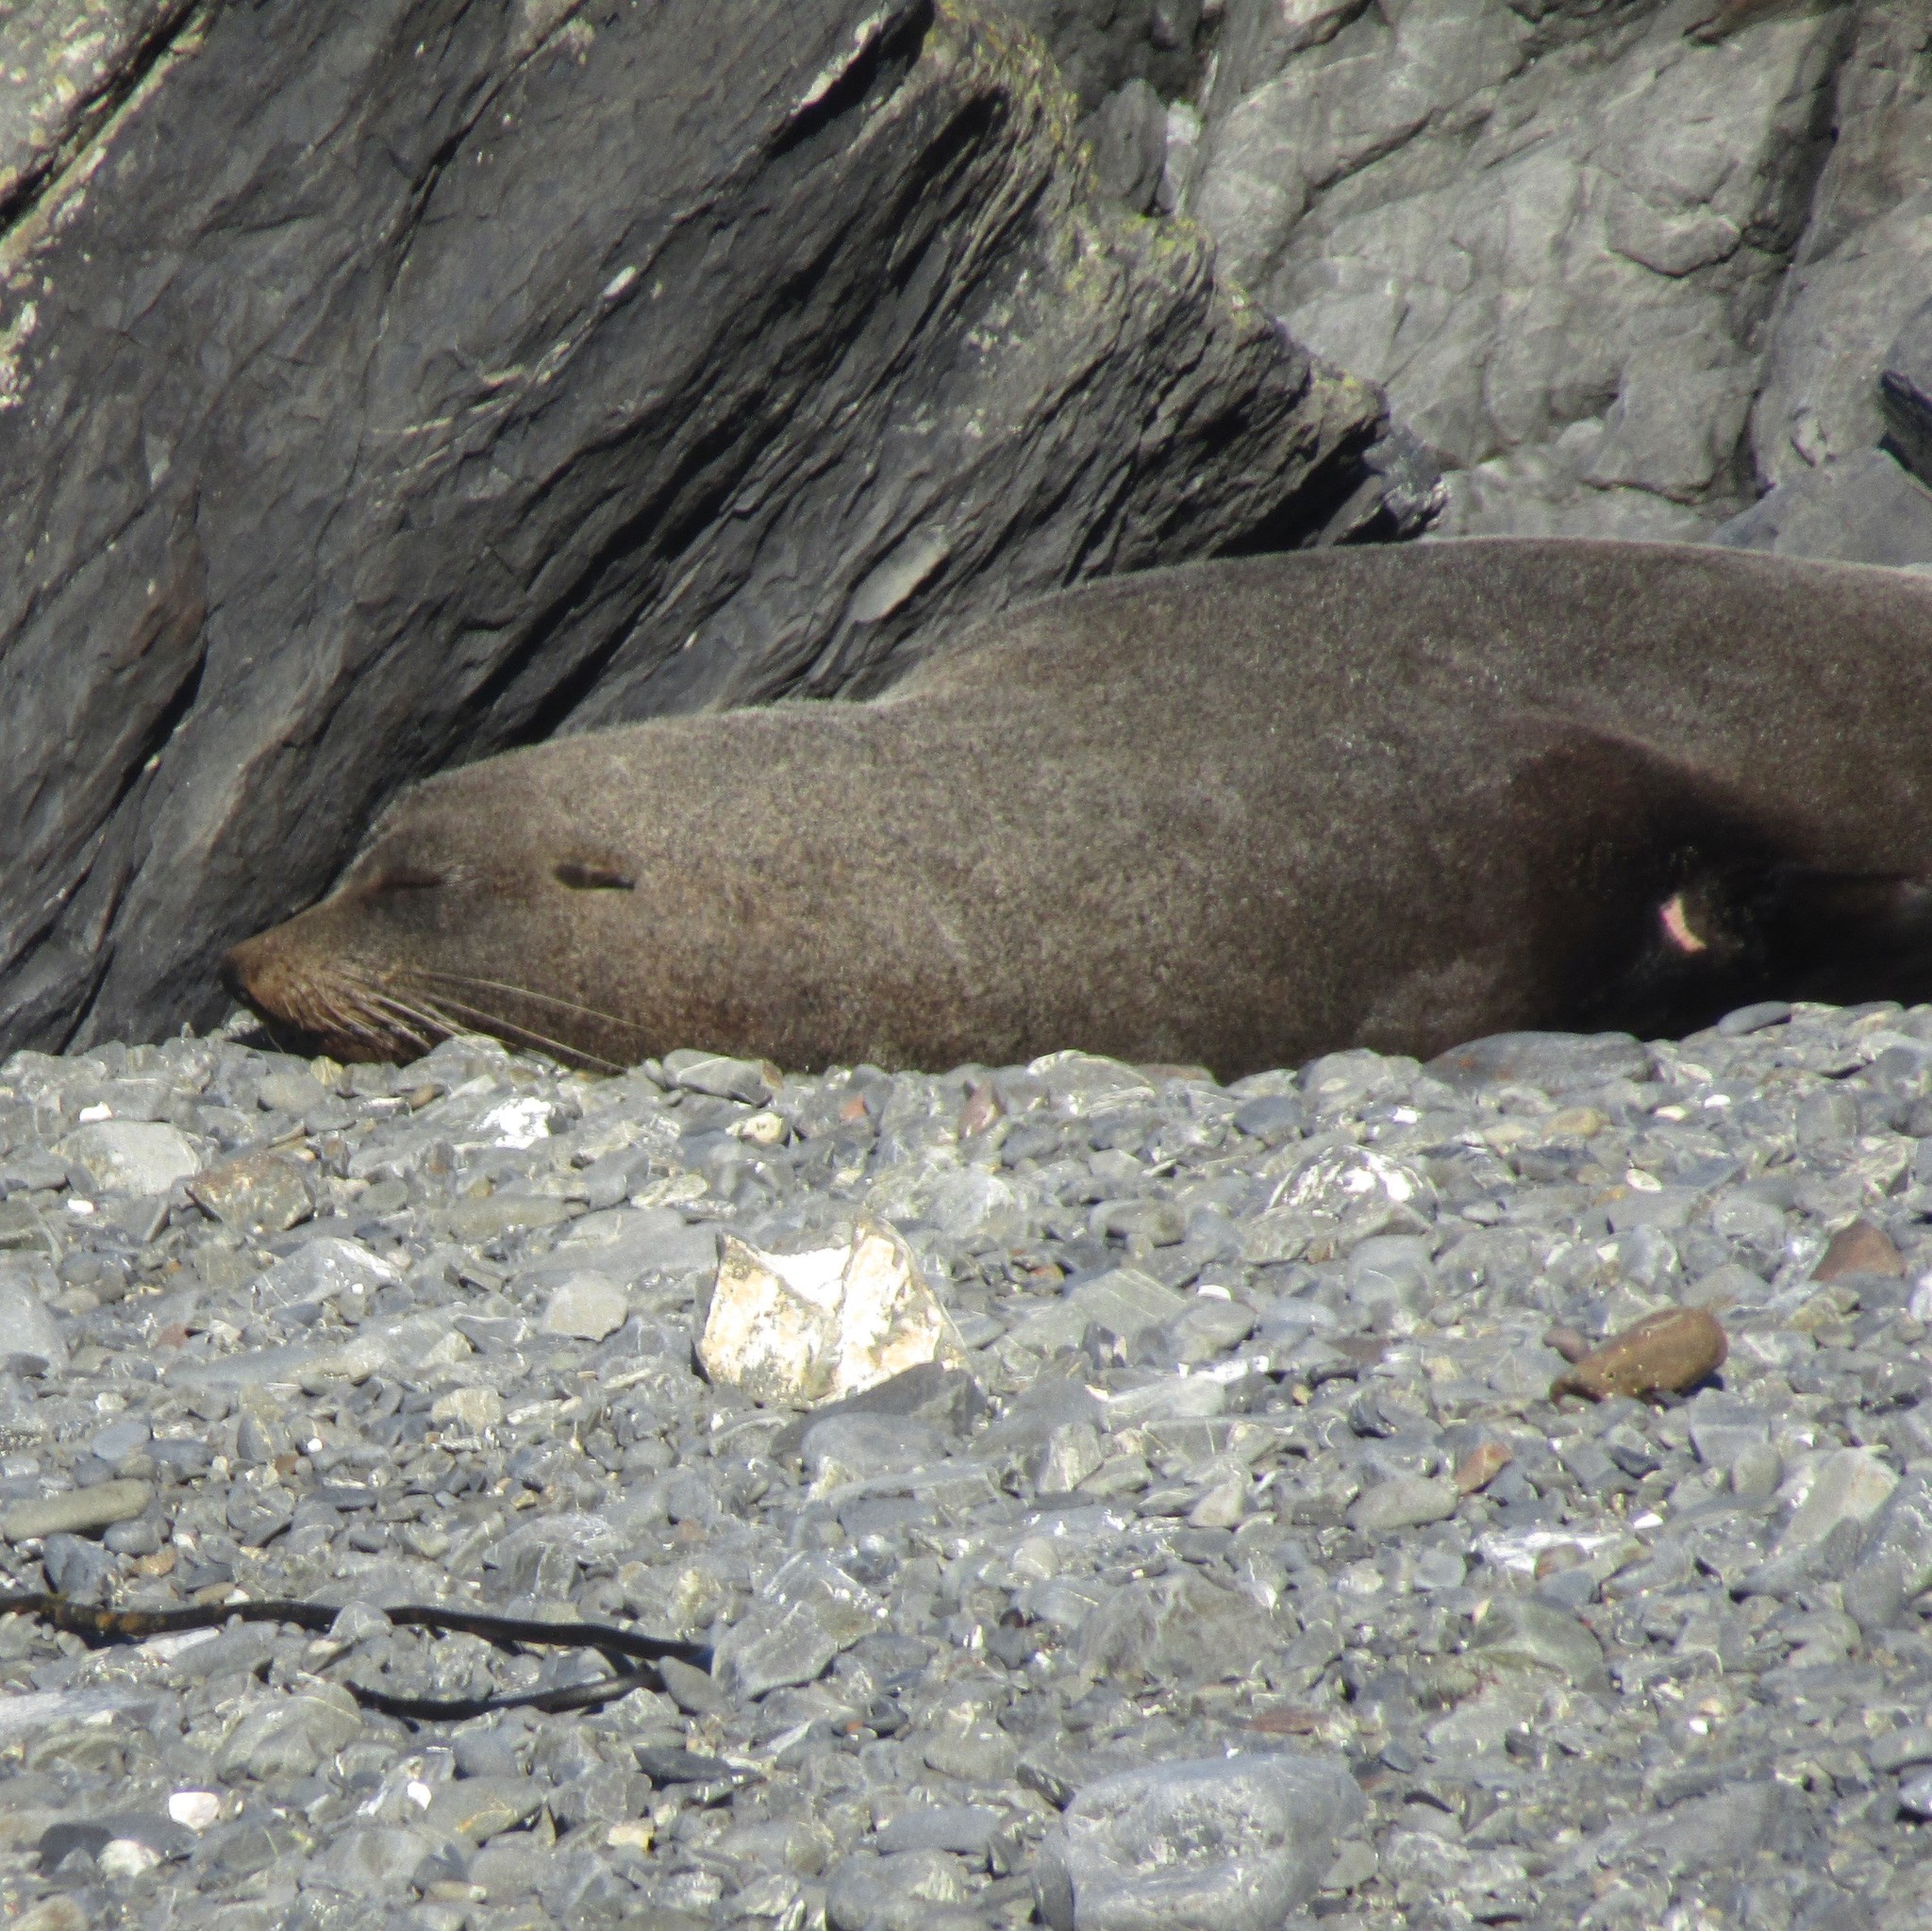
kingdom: Animalia
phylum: Chordata
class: Mammalia
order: Carnivora
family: Otariidae
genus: Arctocephalus
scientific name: Arctocephalus forsteri
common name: New zealand fur seal
